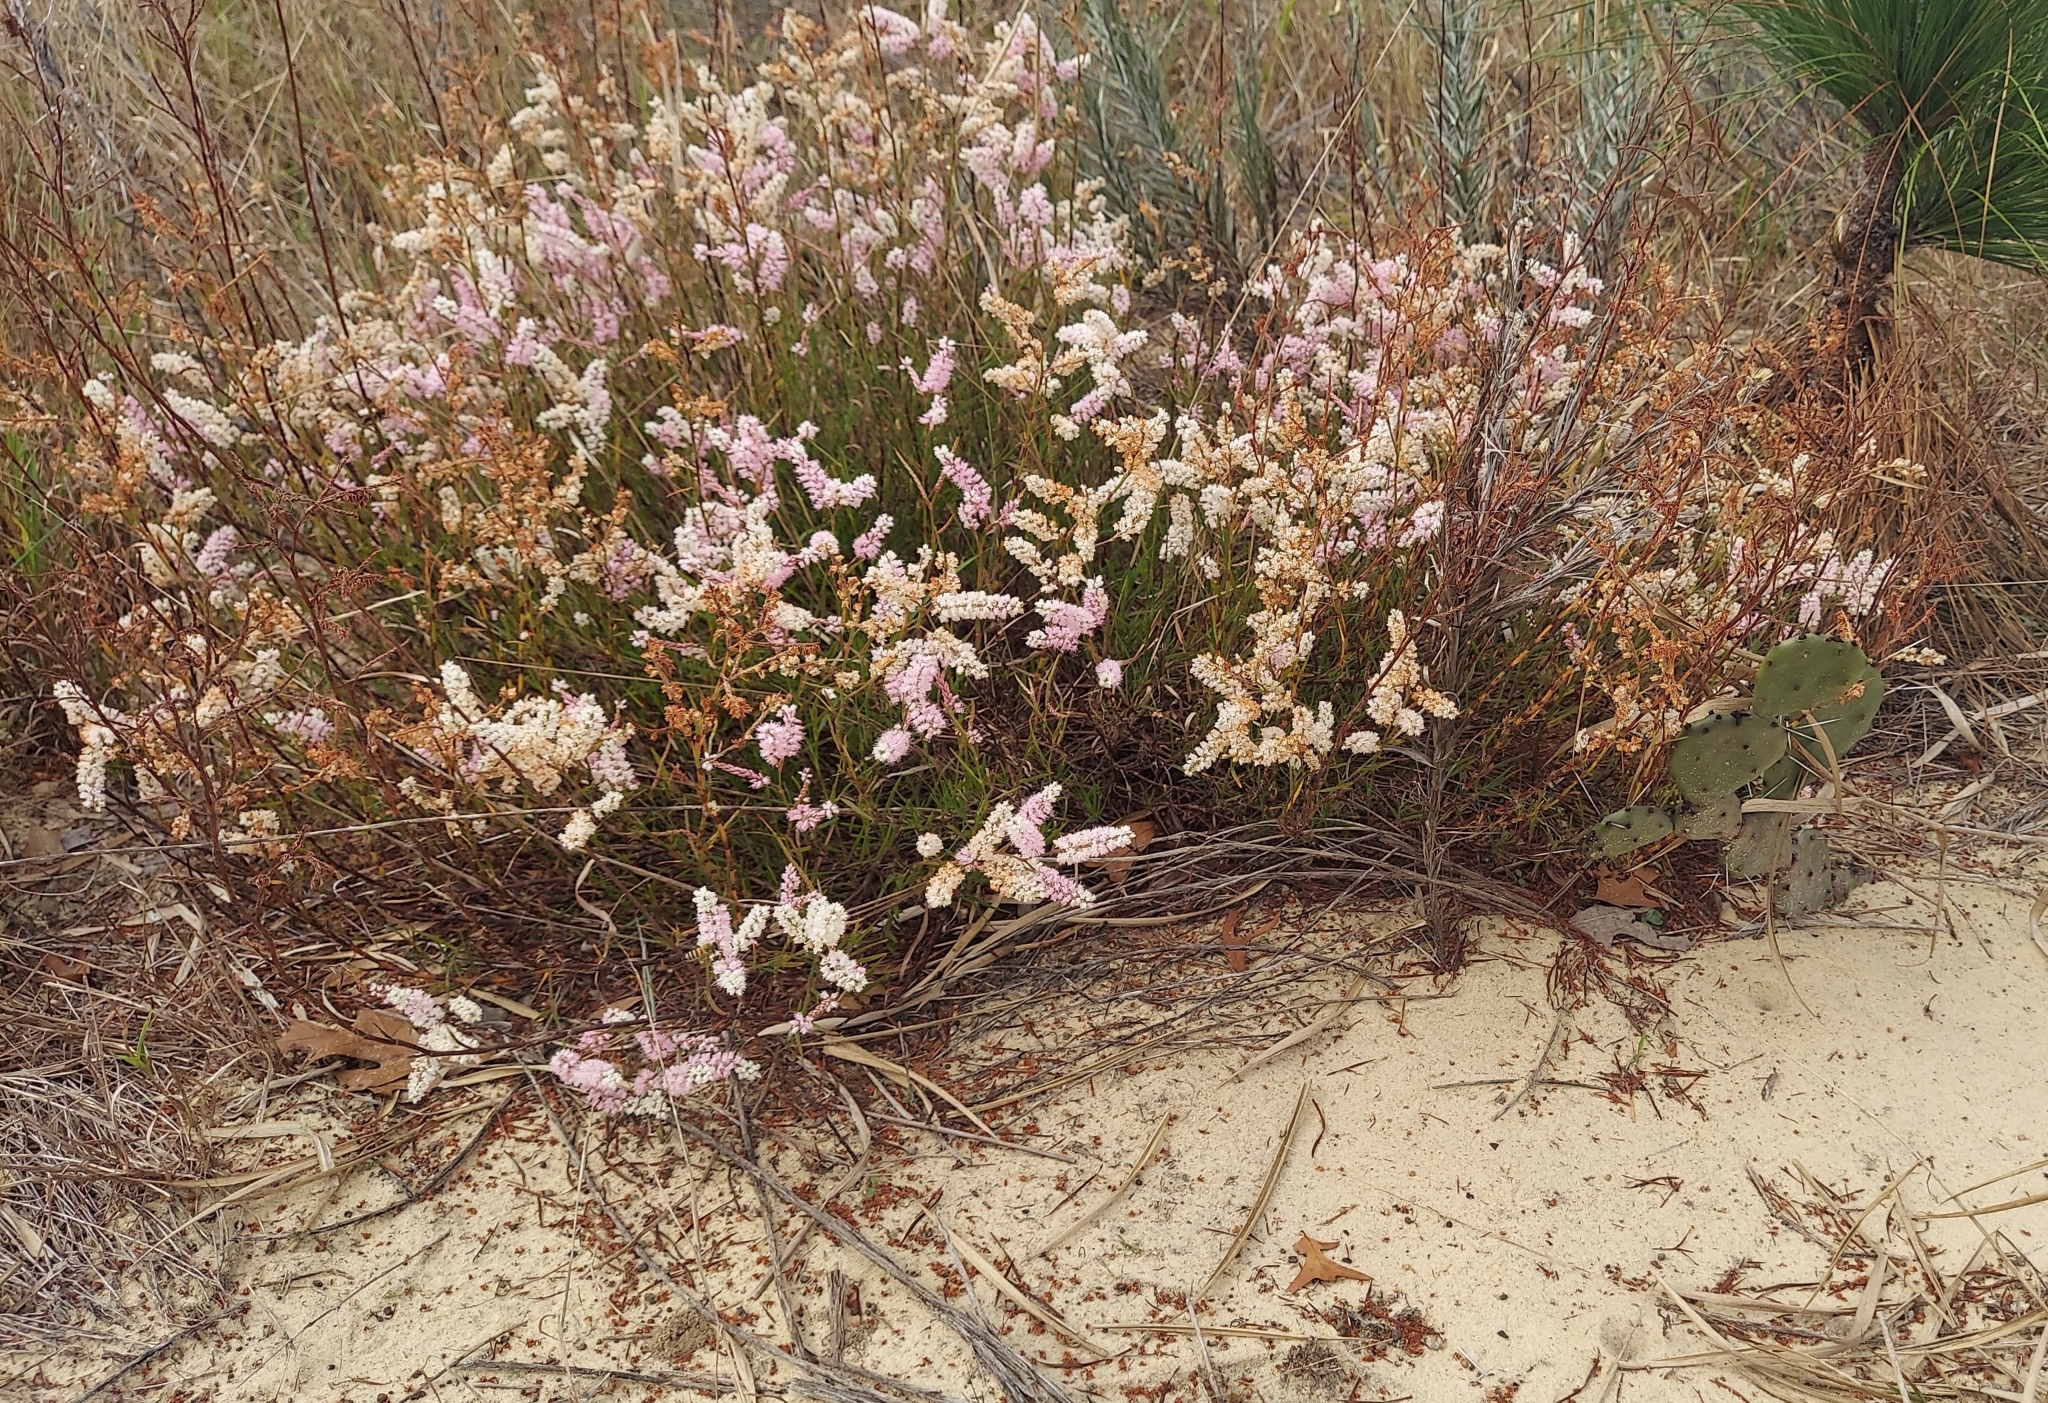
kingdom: Plantae
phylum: Tracheophyta
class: Magnoliopsida
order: Caryophyllales
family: Polygonaceae
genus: Polygonella
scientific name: Polygonella robusta
